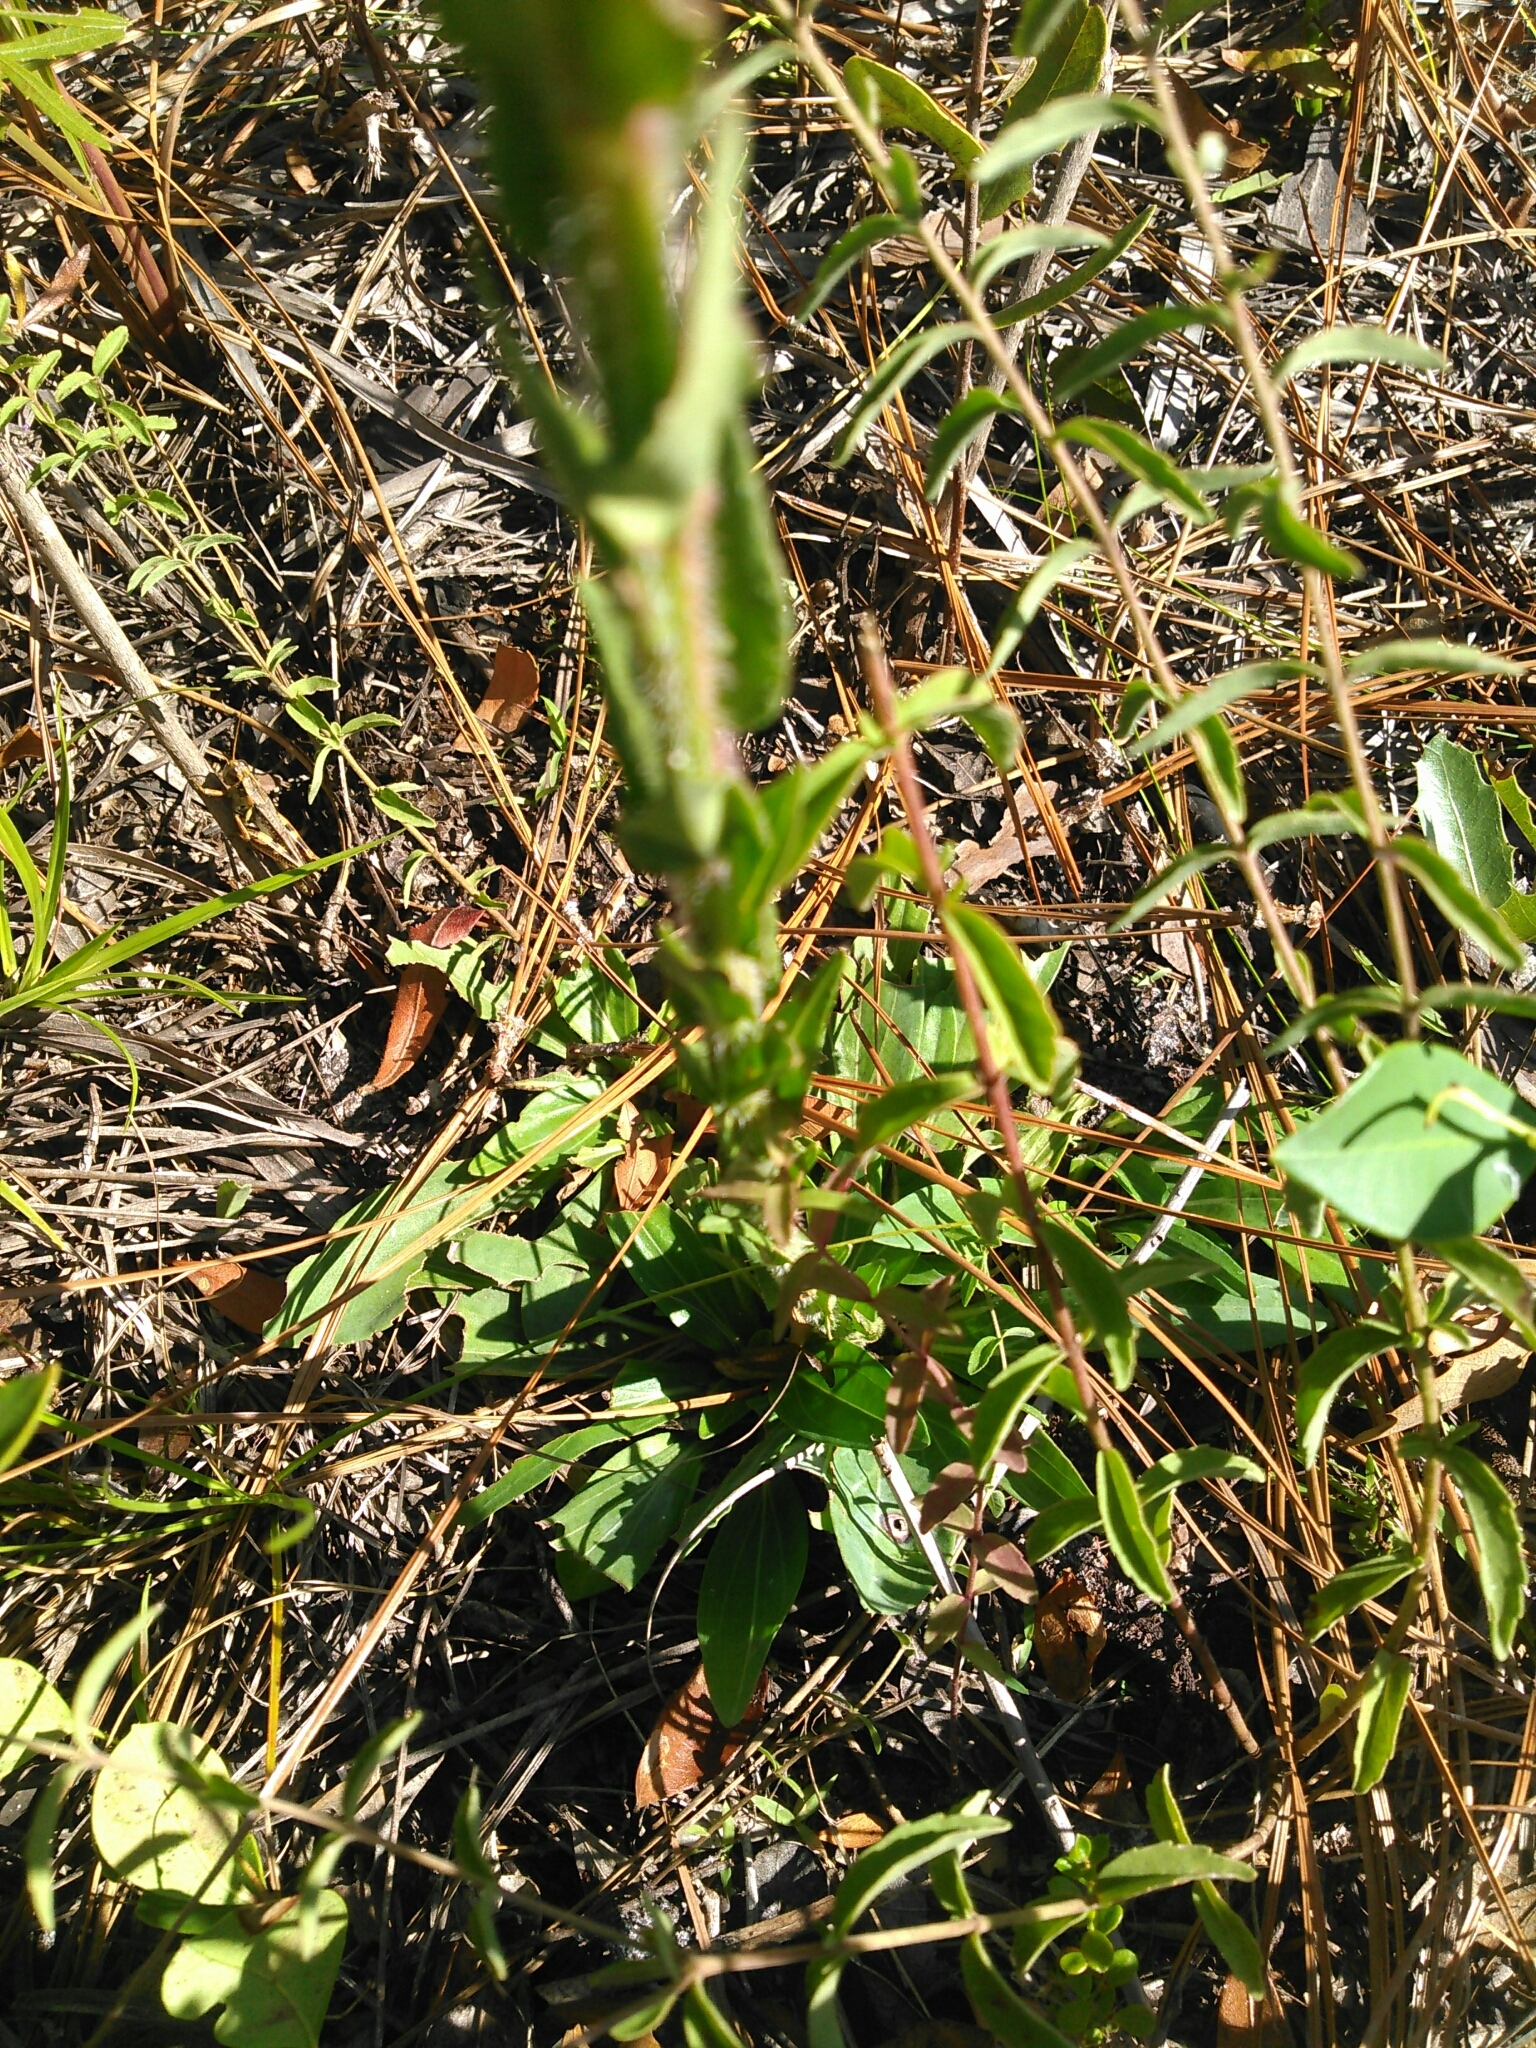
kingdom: Plantae
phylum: Tracheophyta
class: Magnoliopsida
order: Asterales
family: Asteraceae
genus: Carphephorus
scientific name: Carphephorus paniculatus
